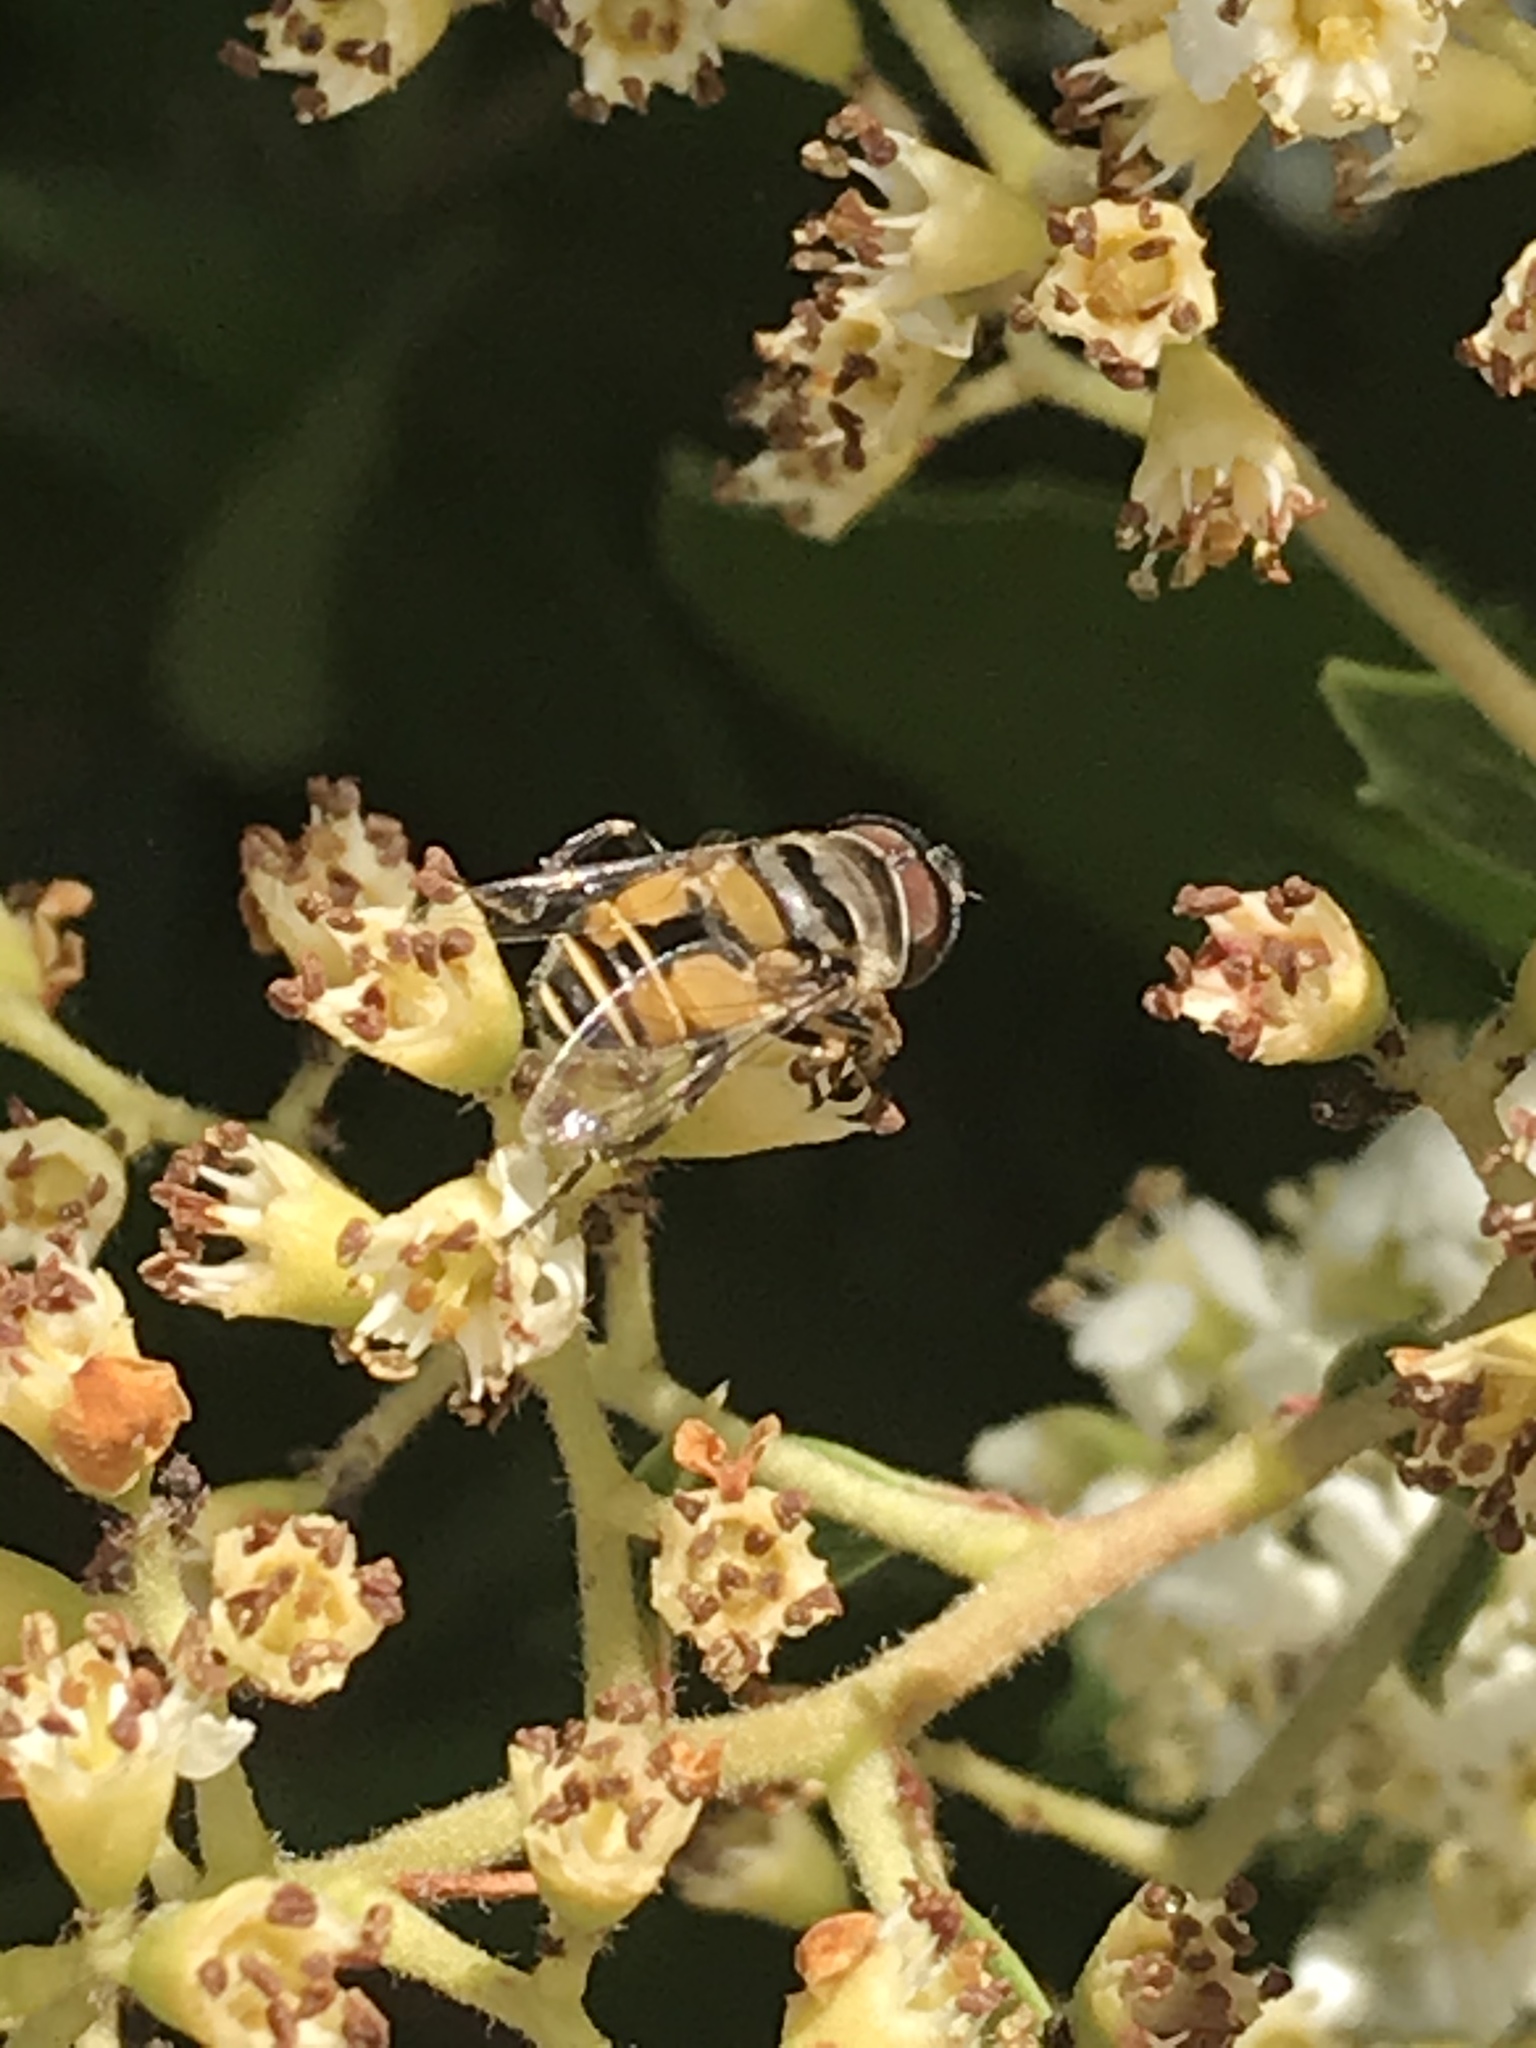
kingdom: Animalia
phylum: Arthropoda
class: Insecta
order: Diptera
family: Syrphidae
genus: Palpada
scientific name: Palpada alhambra
